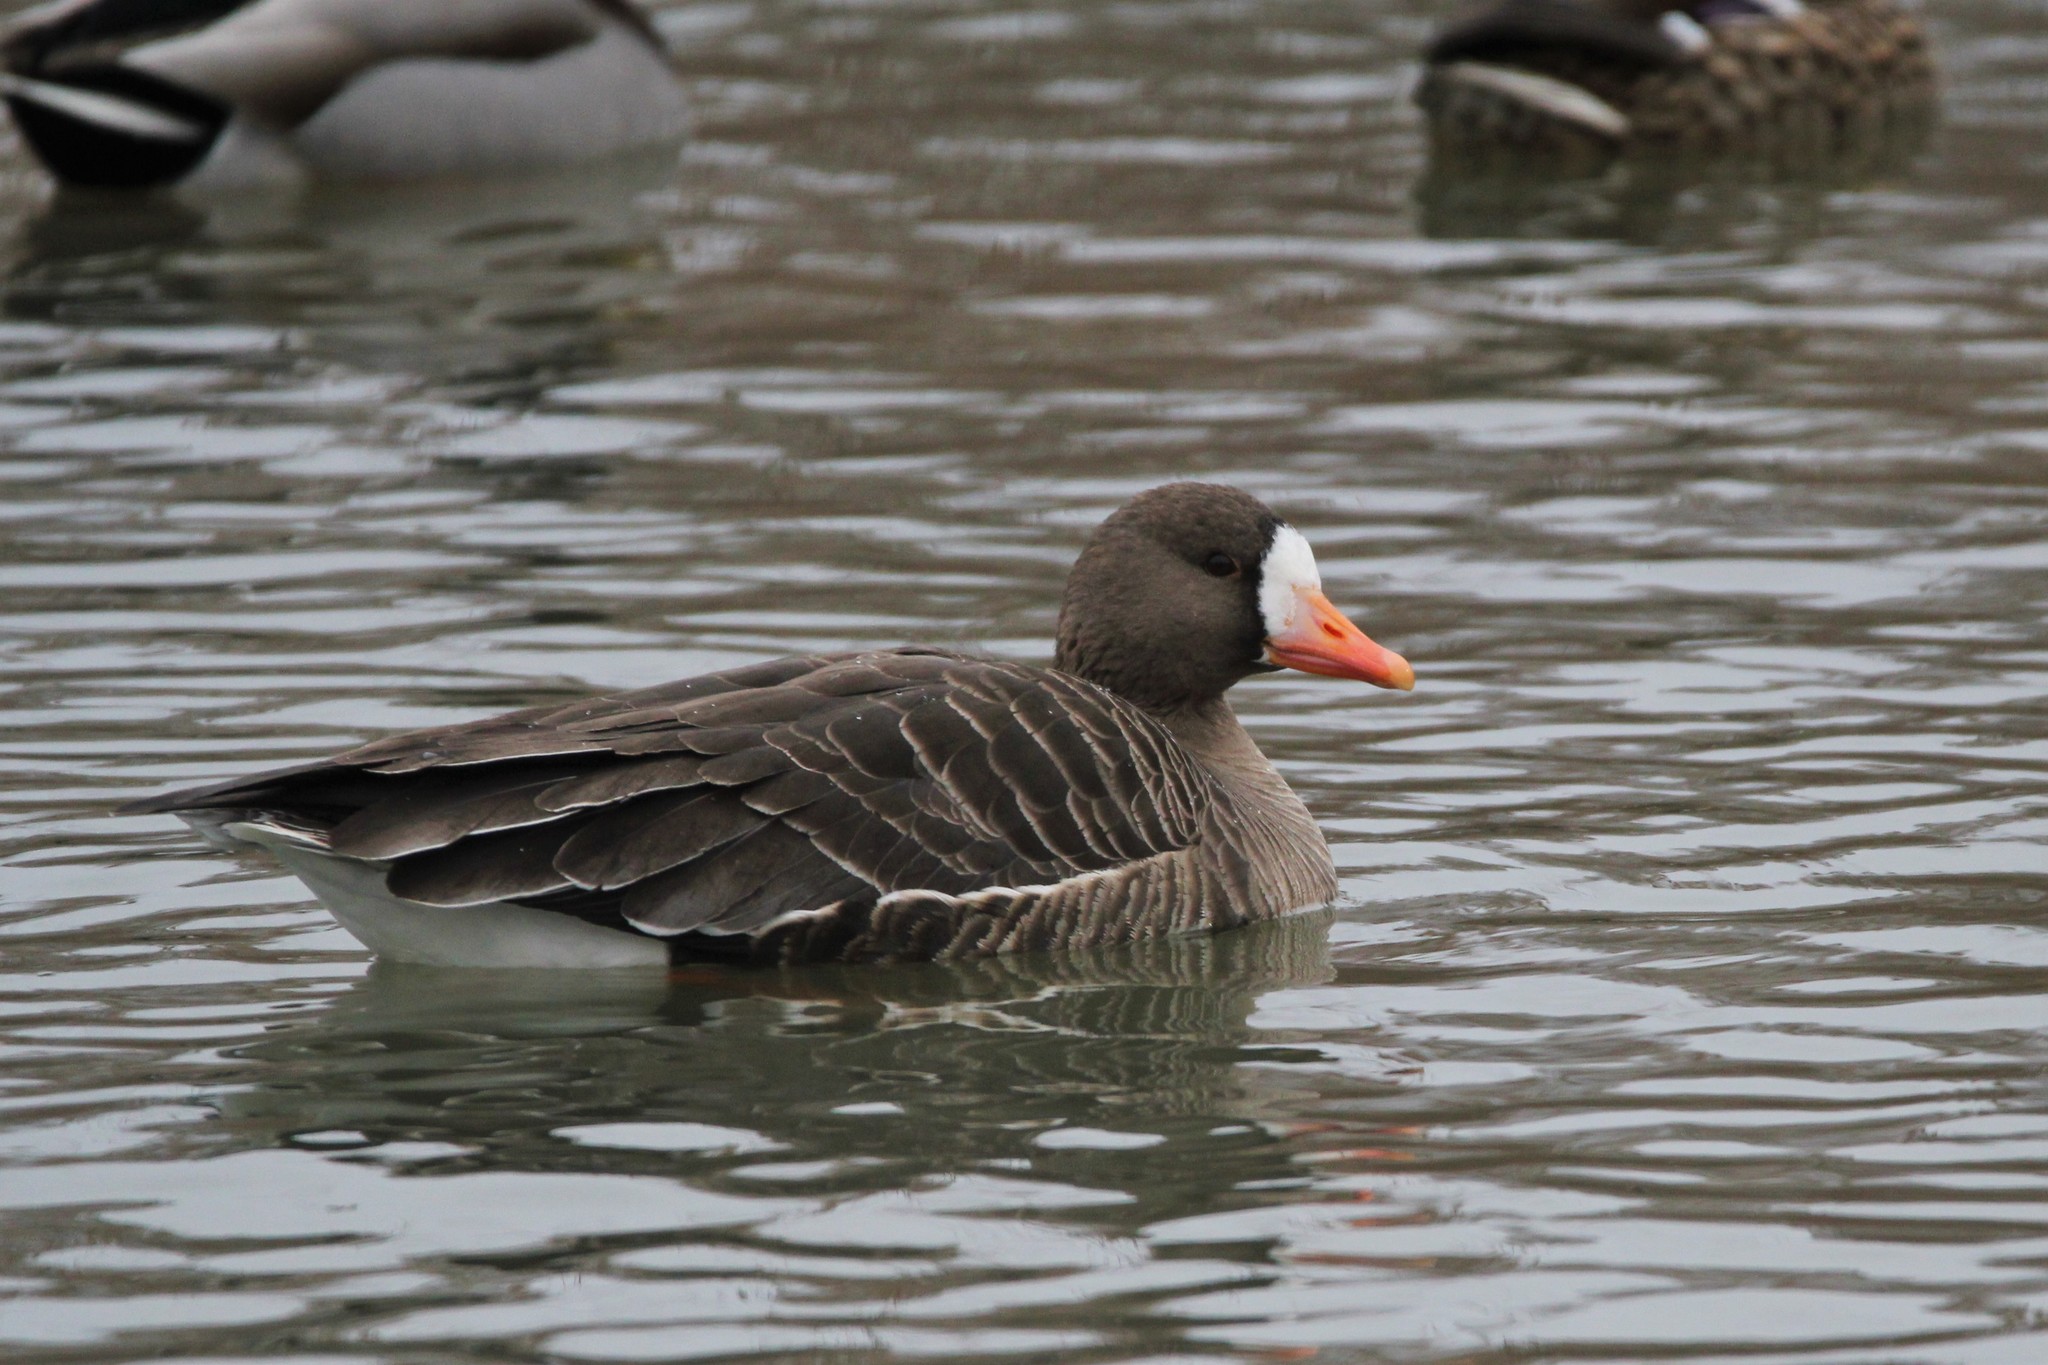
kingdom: Animalia
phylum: Chordata
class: Aves
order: Anseriformes
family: Anatidae
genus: Anser
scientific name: Anser albifrons
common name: Greater white-fronted goose
